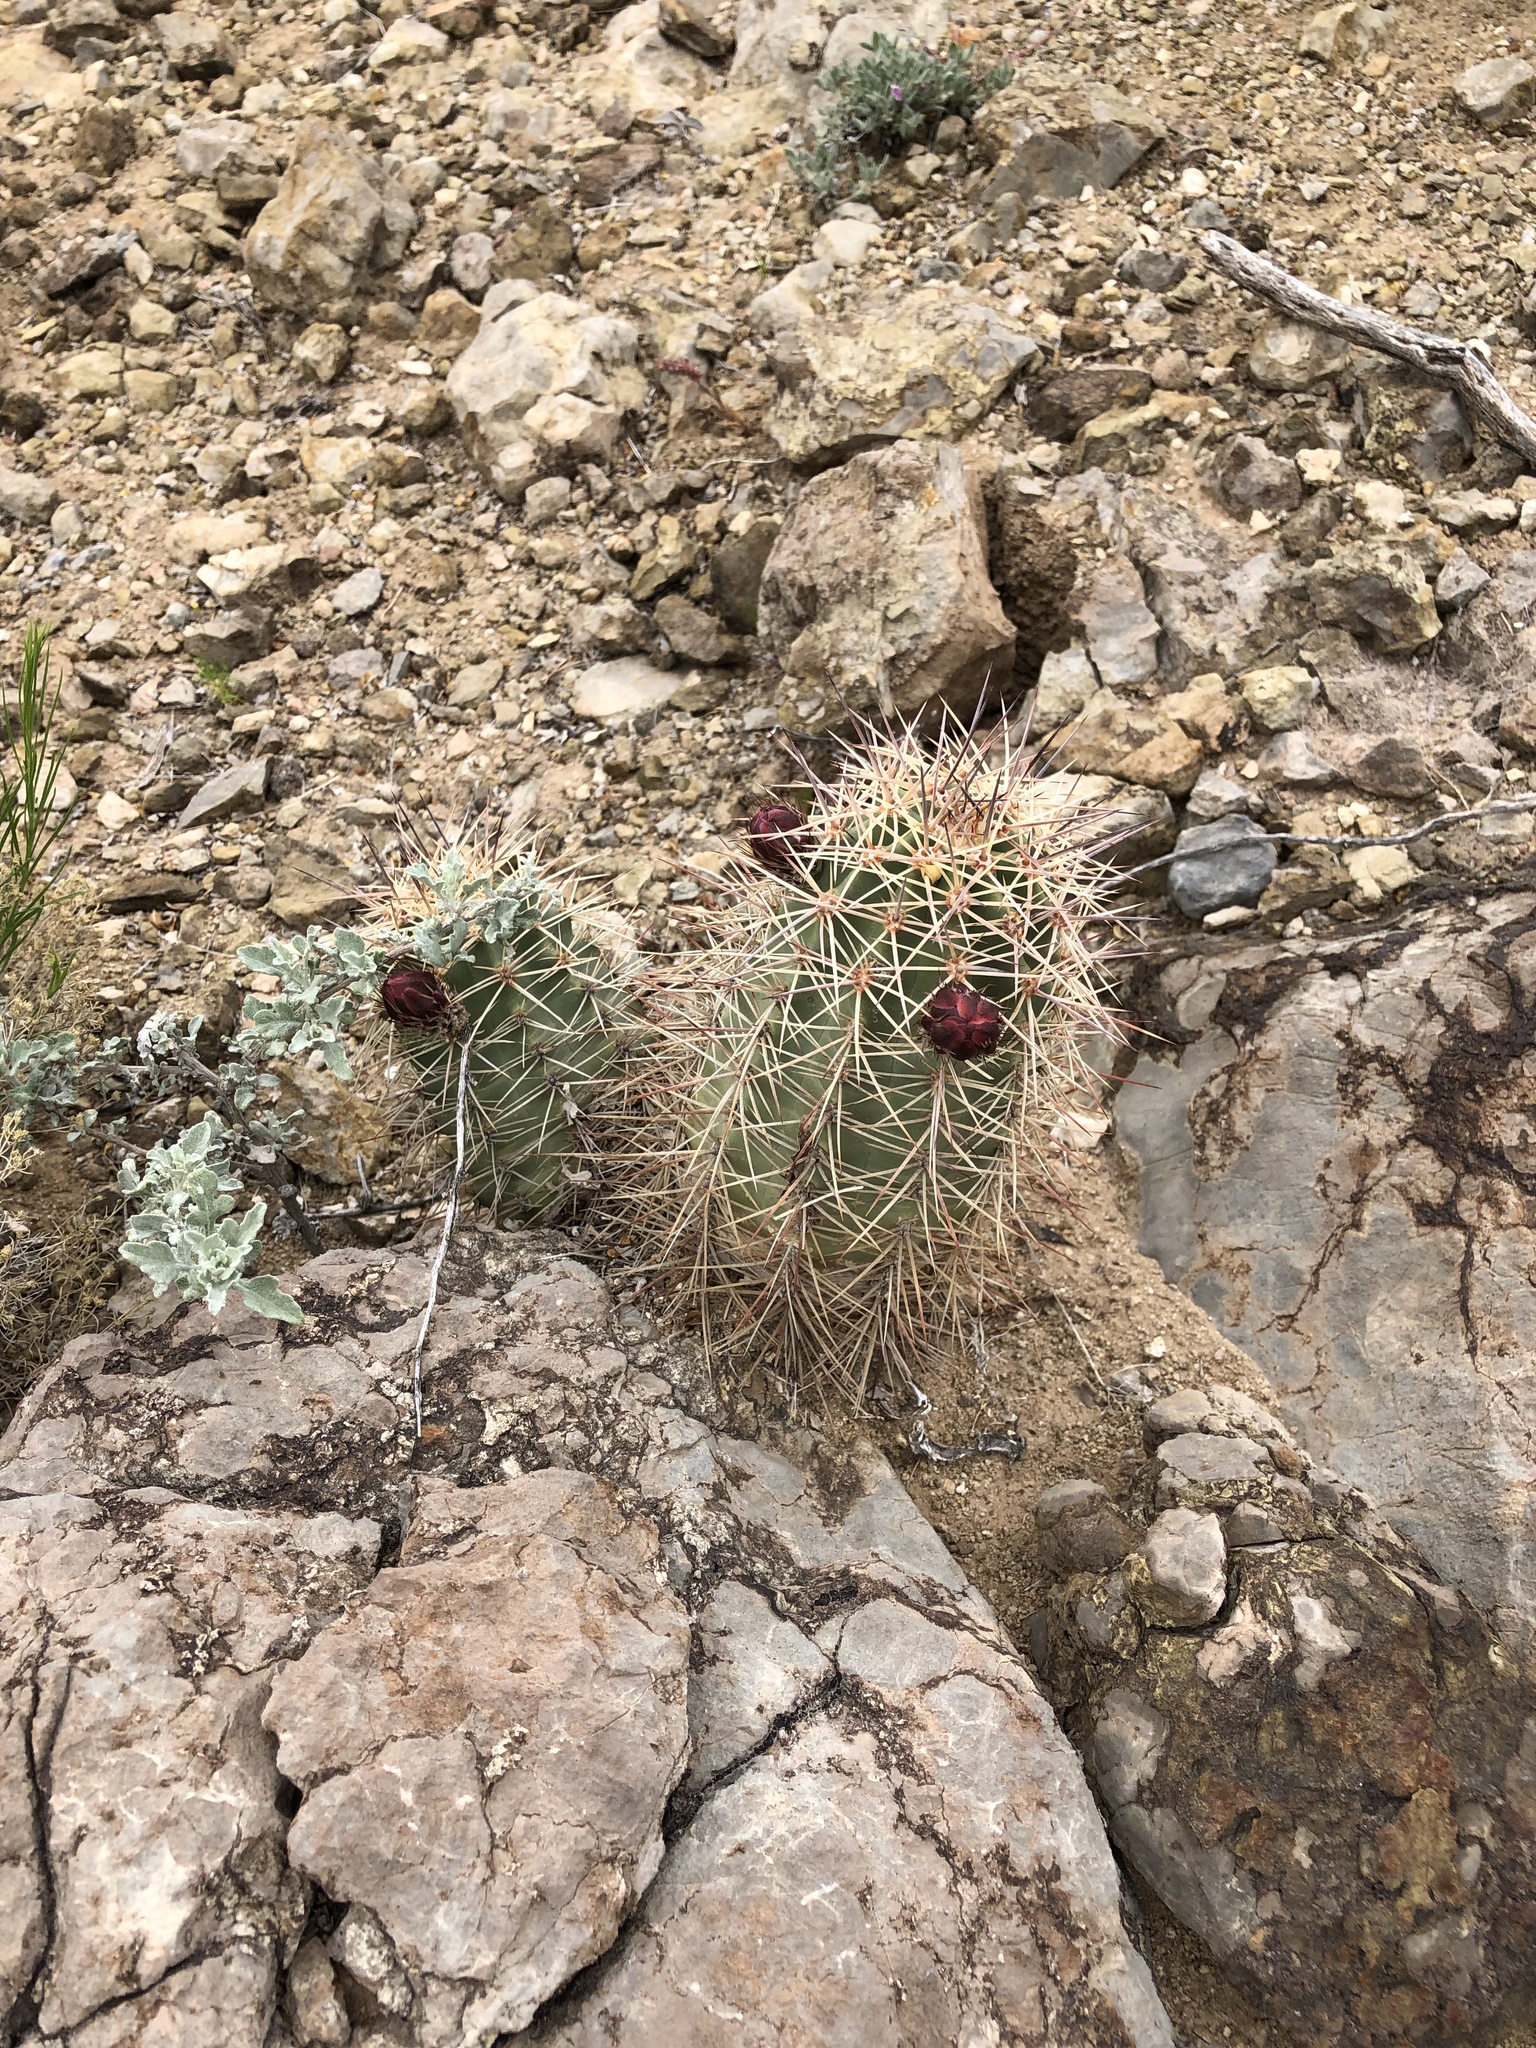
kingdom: Plantae
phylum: Tracheophyta
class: Magnoliopsida
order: Caryophyllales
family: Cactaceae
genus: Echinocereus
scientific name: Echinocereus coccineus
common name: Scarlet hedgehog cactus
